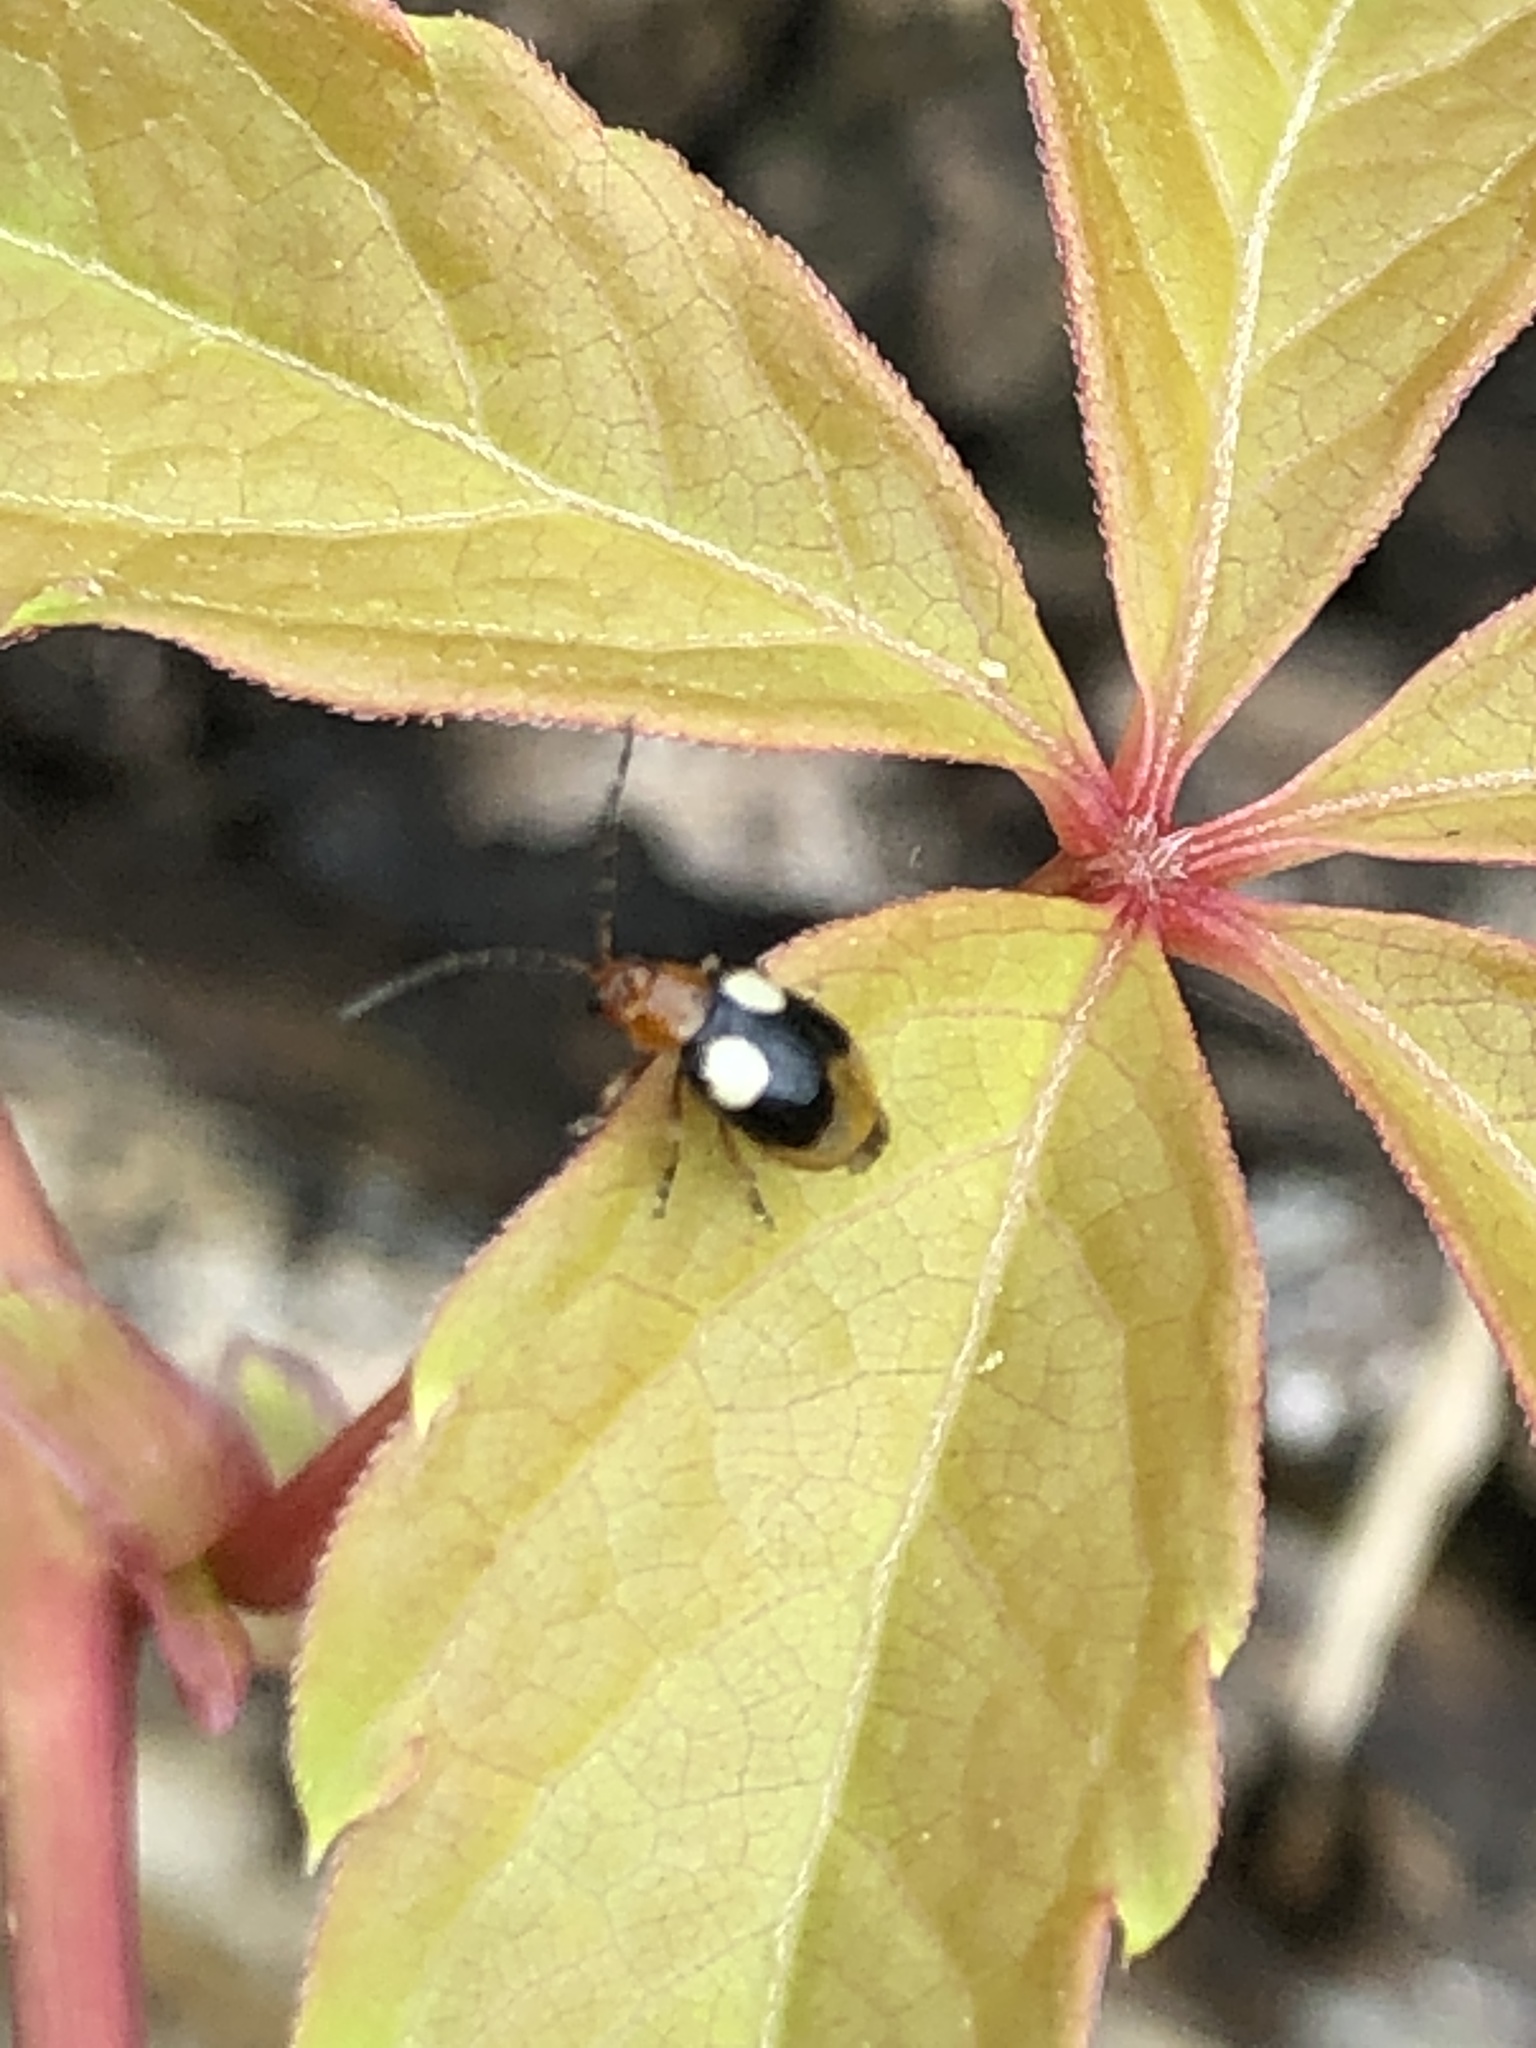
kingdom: Animalia
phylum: Arthropoda
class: Insecta
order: Coleoptera
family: Chrysomelidae
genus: Monolepta
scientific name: Monolepta quadriguttata
